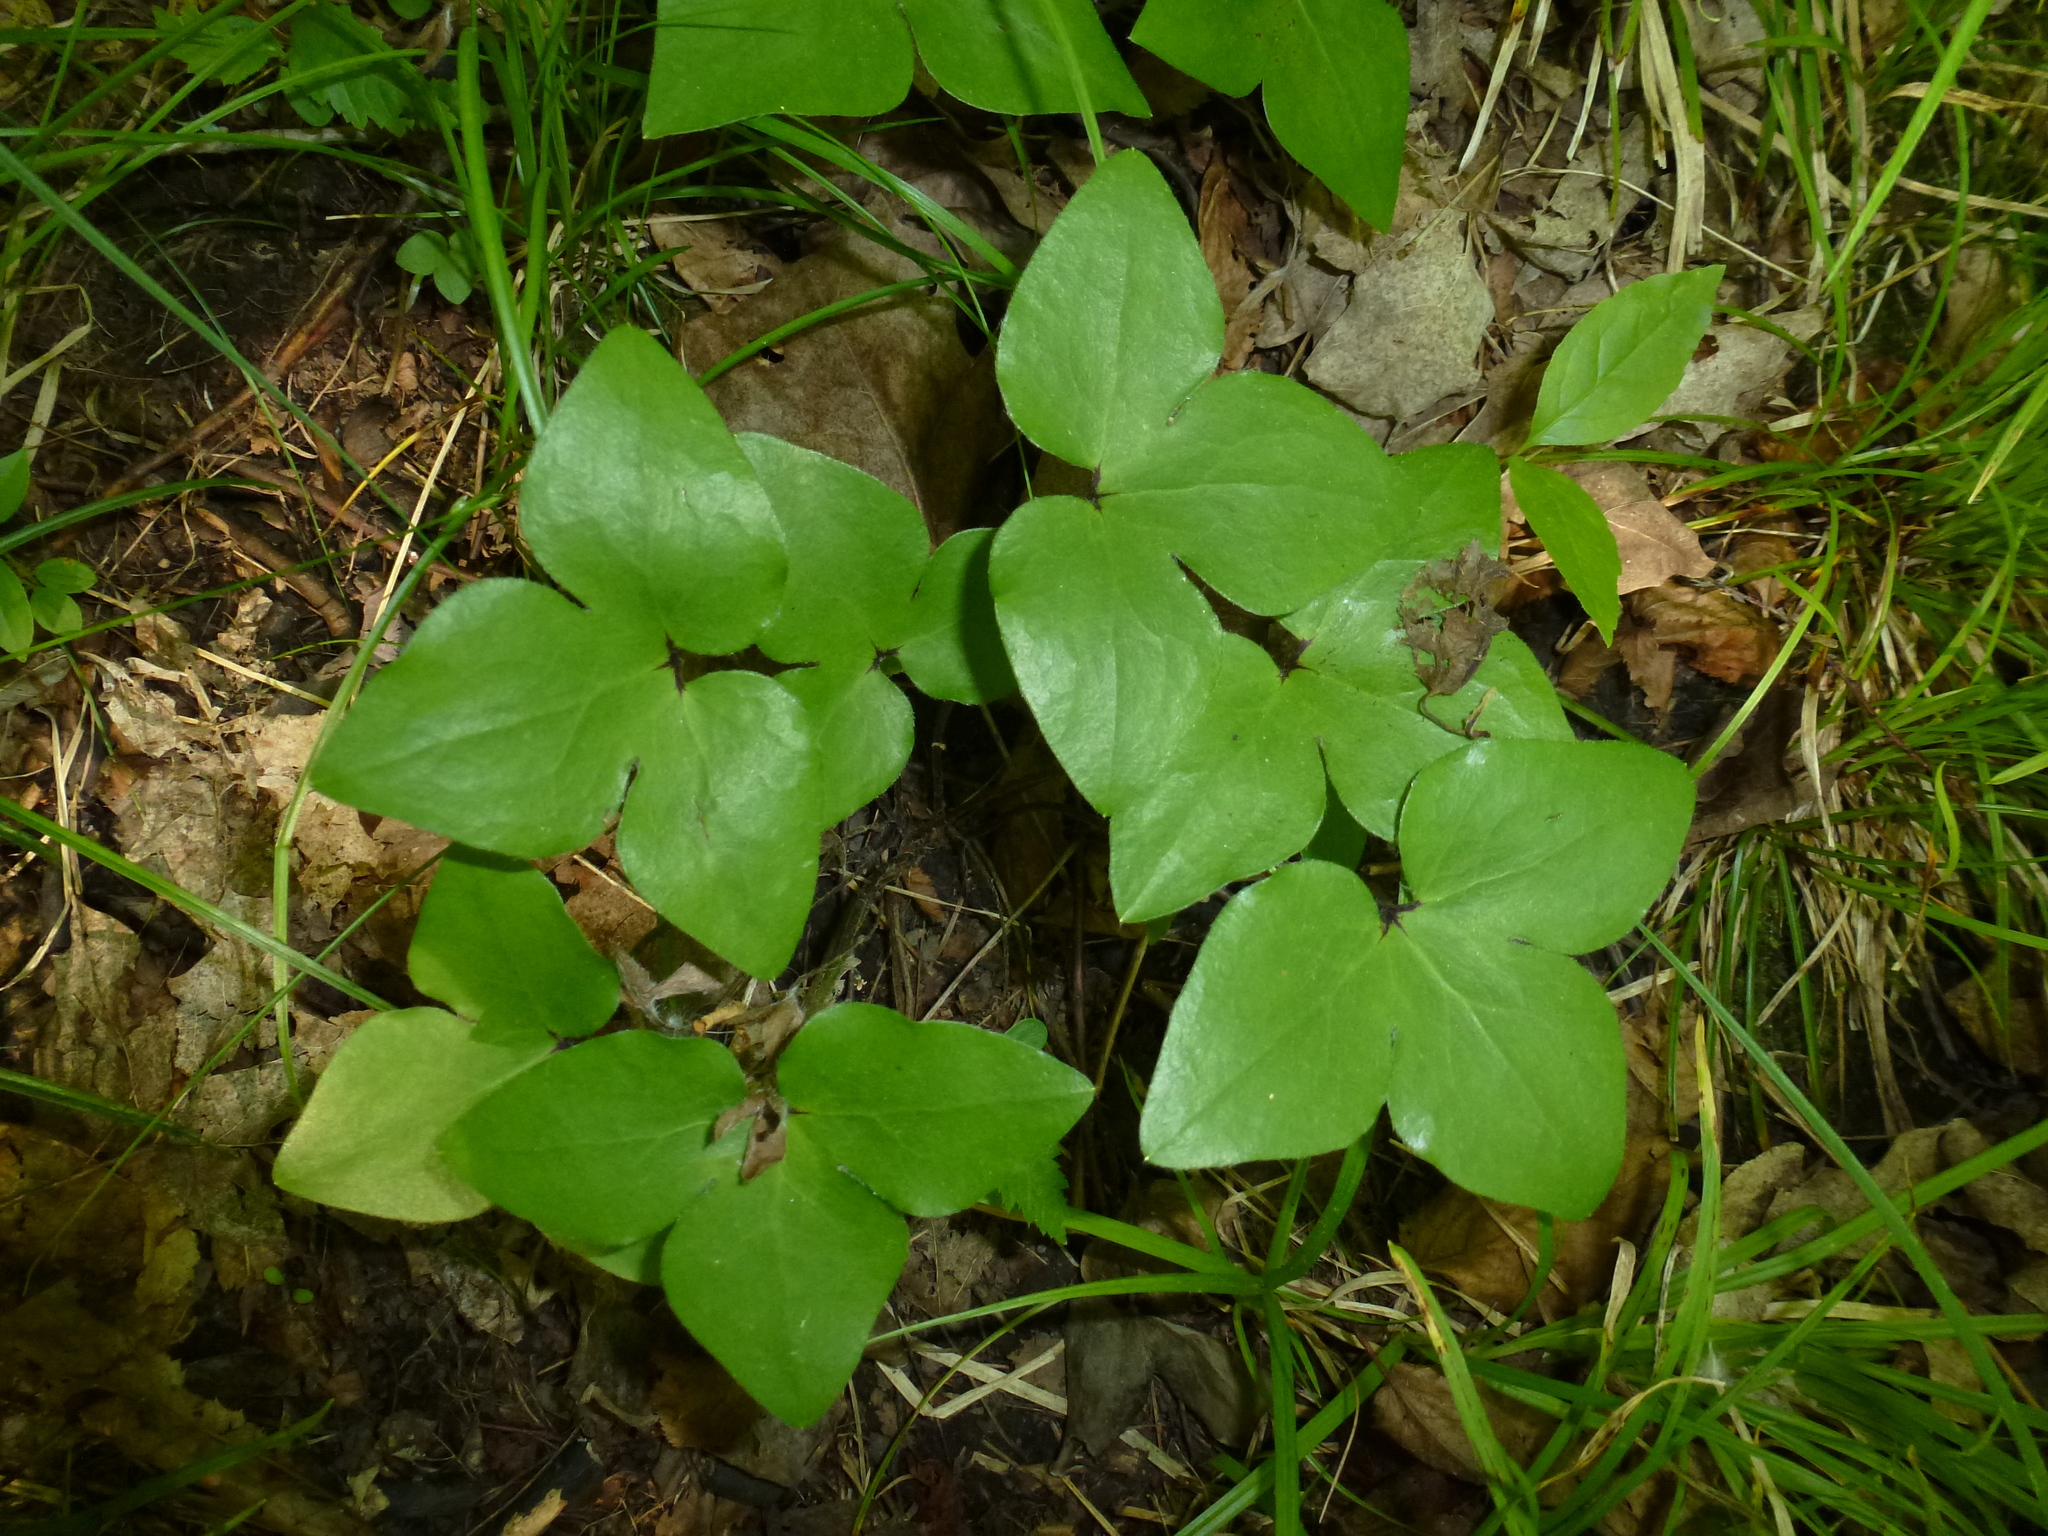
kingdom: Plantae
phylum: Tracheophyta
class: Magnoliopsida
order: Ranunculales
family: Ranunculaceae
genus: Hepatica
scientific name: Hepatica acutiloba
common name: Sharp-lobed hepatica
